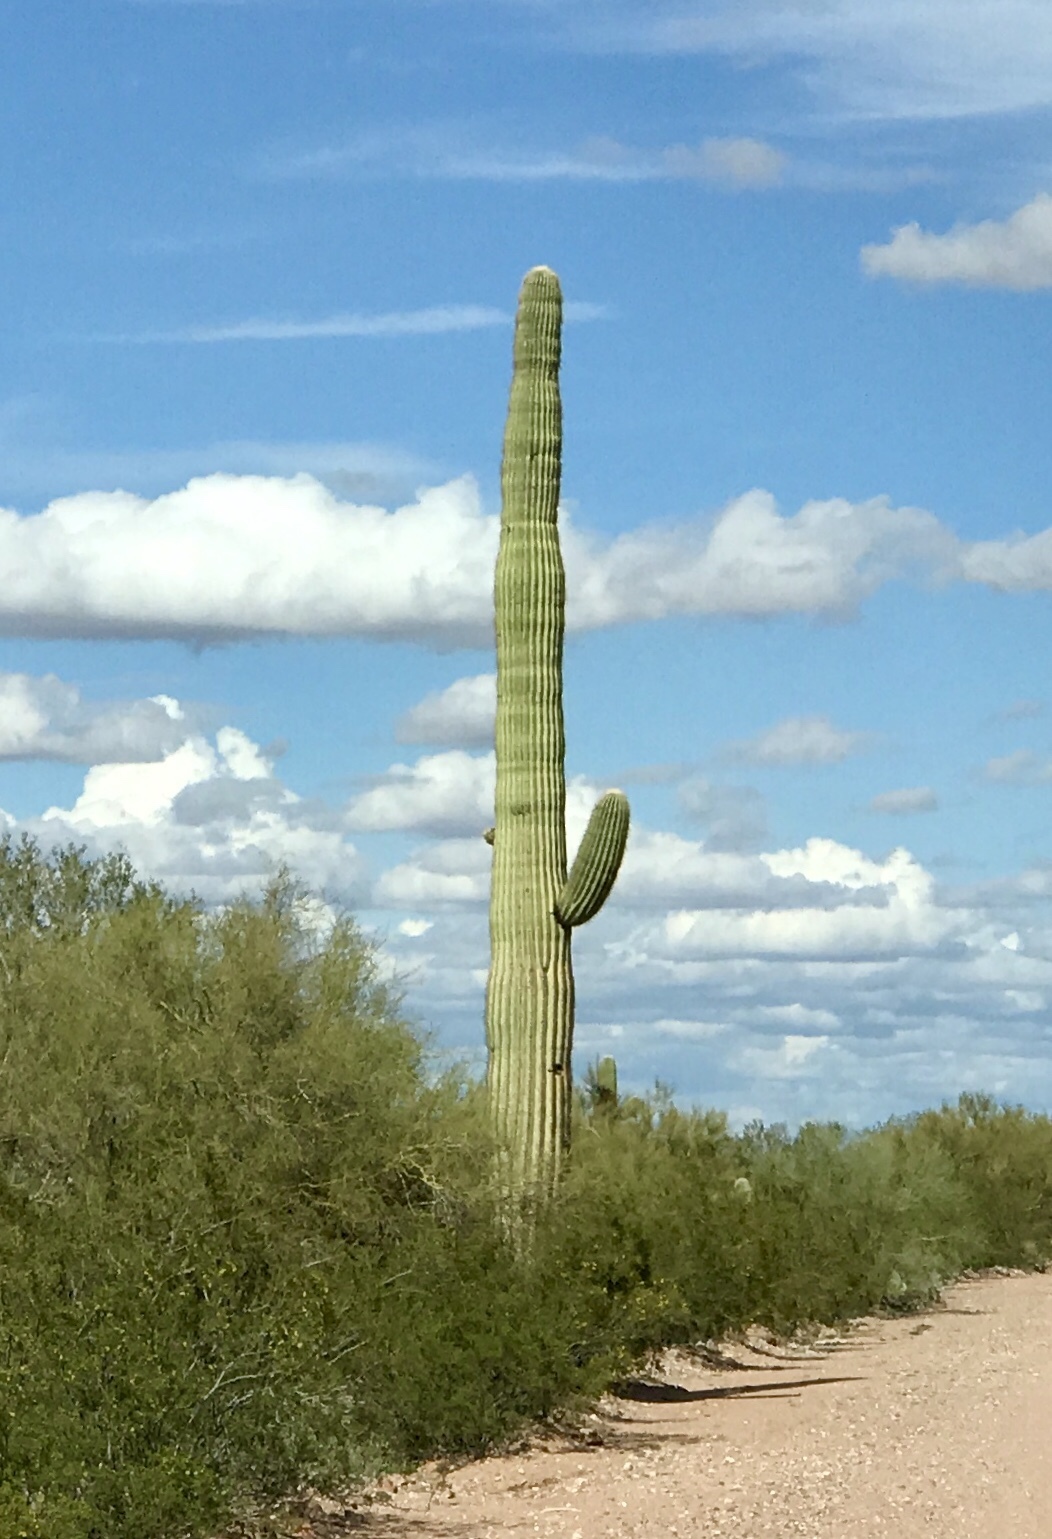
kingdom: Plantae
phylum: Tracheophyta
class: Magnoliopsida
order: Caryophyllales
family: Cactaceae
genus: Carnegiea
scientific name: Carnegiea gigantea
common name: Saguaro
